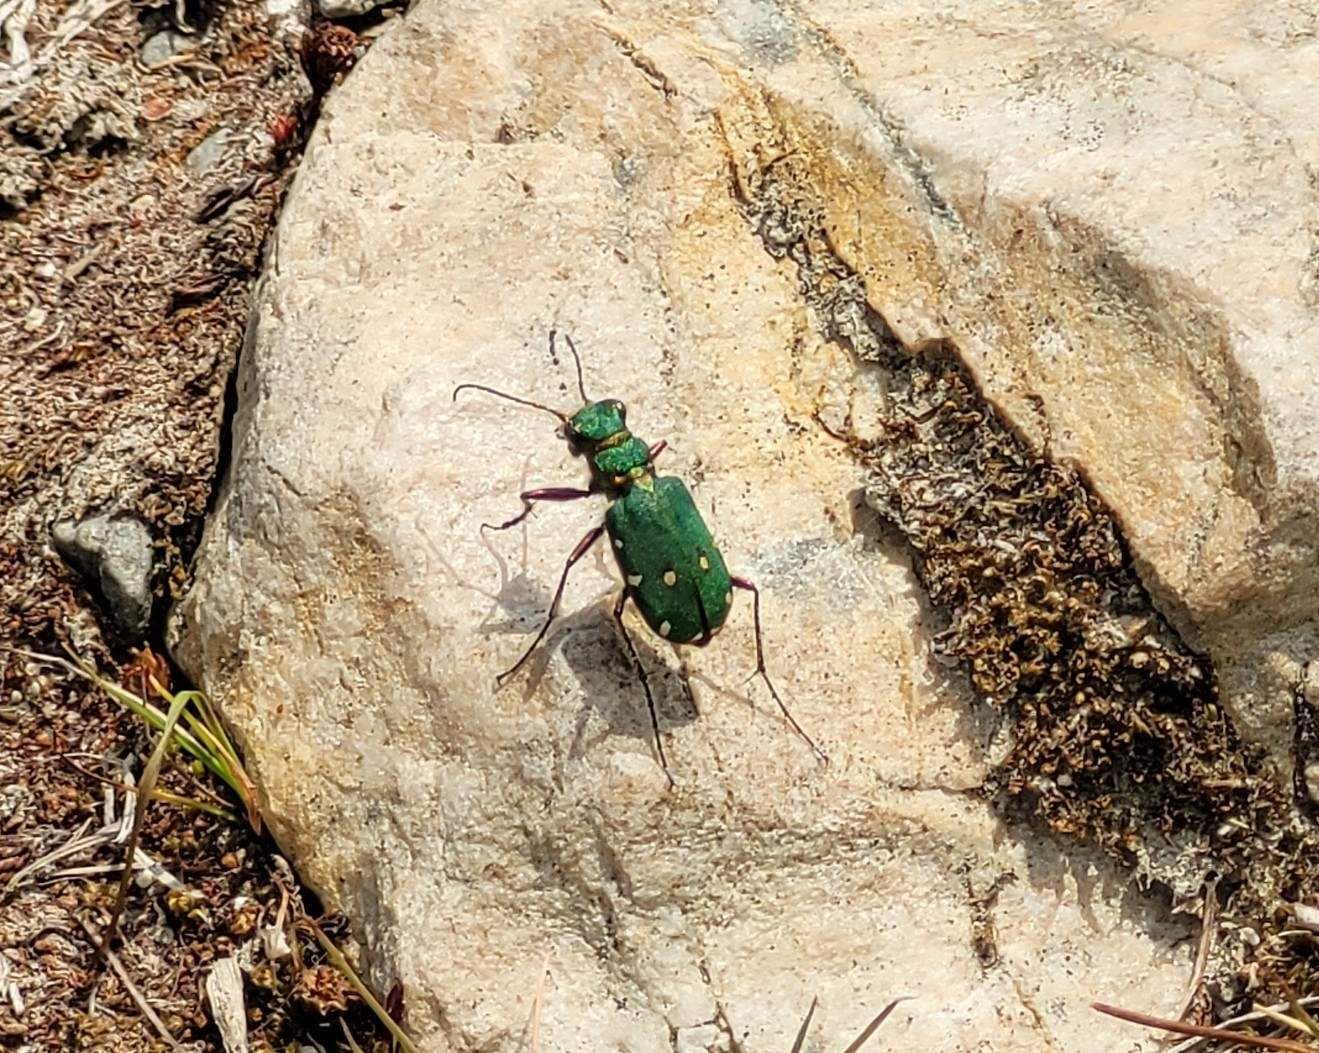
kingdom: Animalia
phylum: Arthropoda
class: Insecta
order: Coleoptera
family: Carabidae
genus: Cicindela
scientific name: Cicindela campestris
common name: Common tiger beetle
